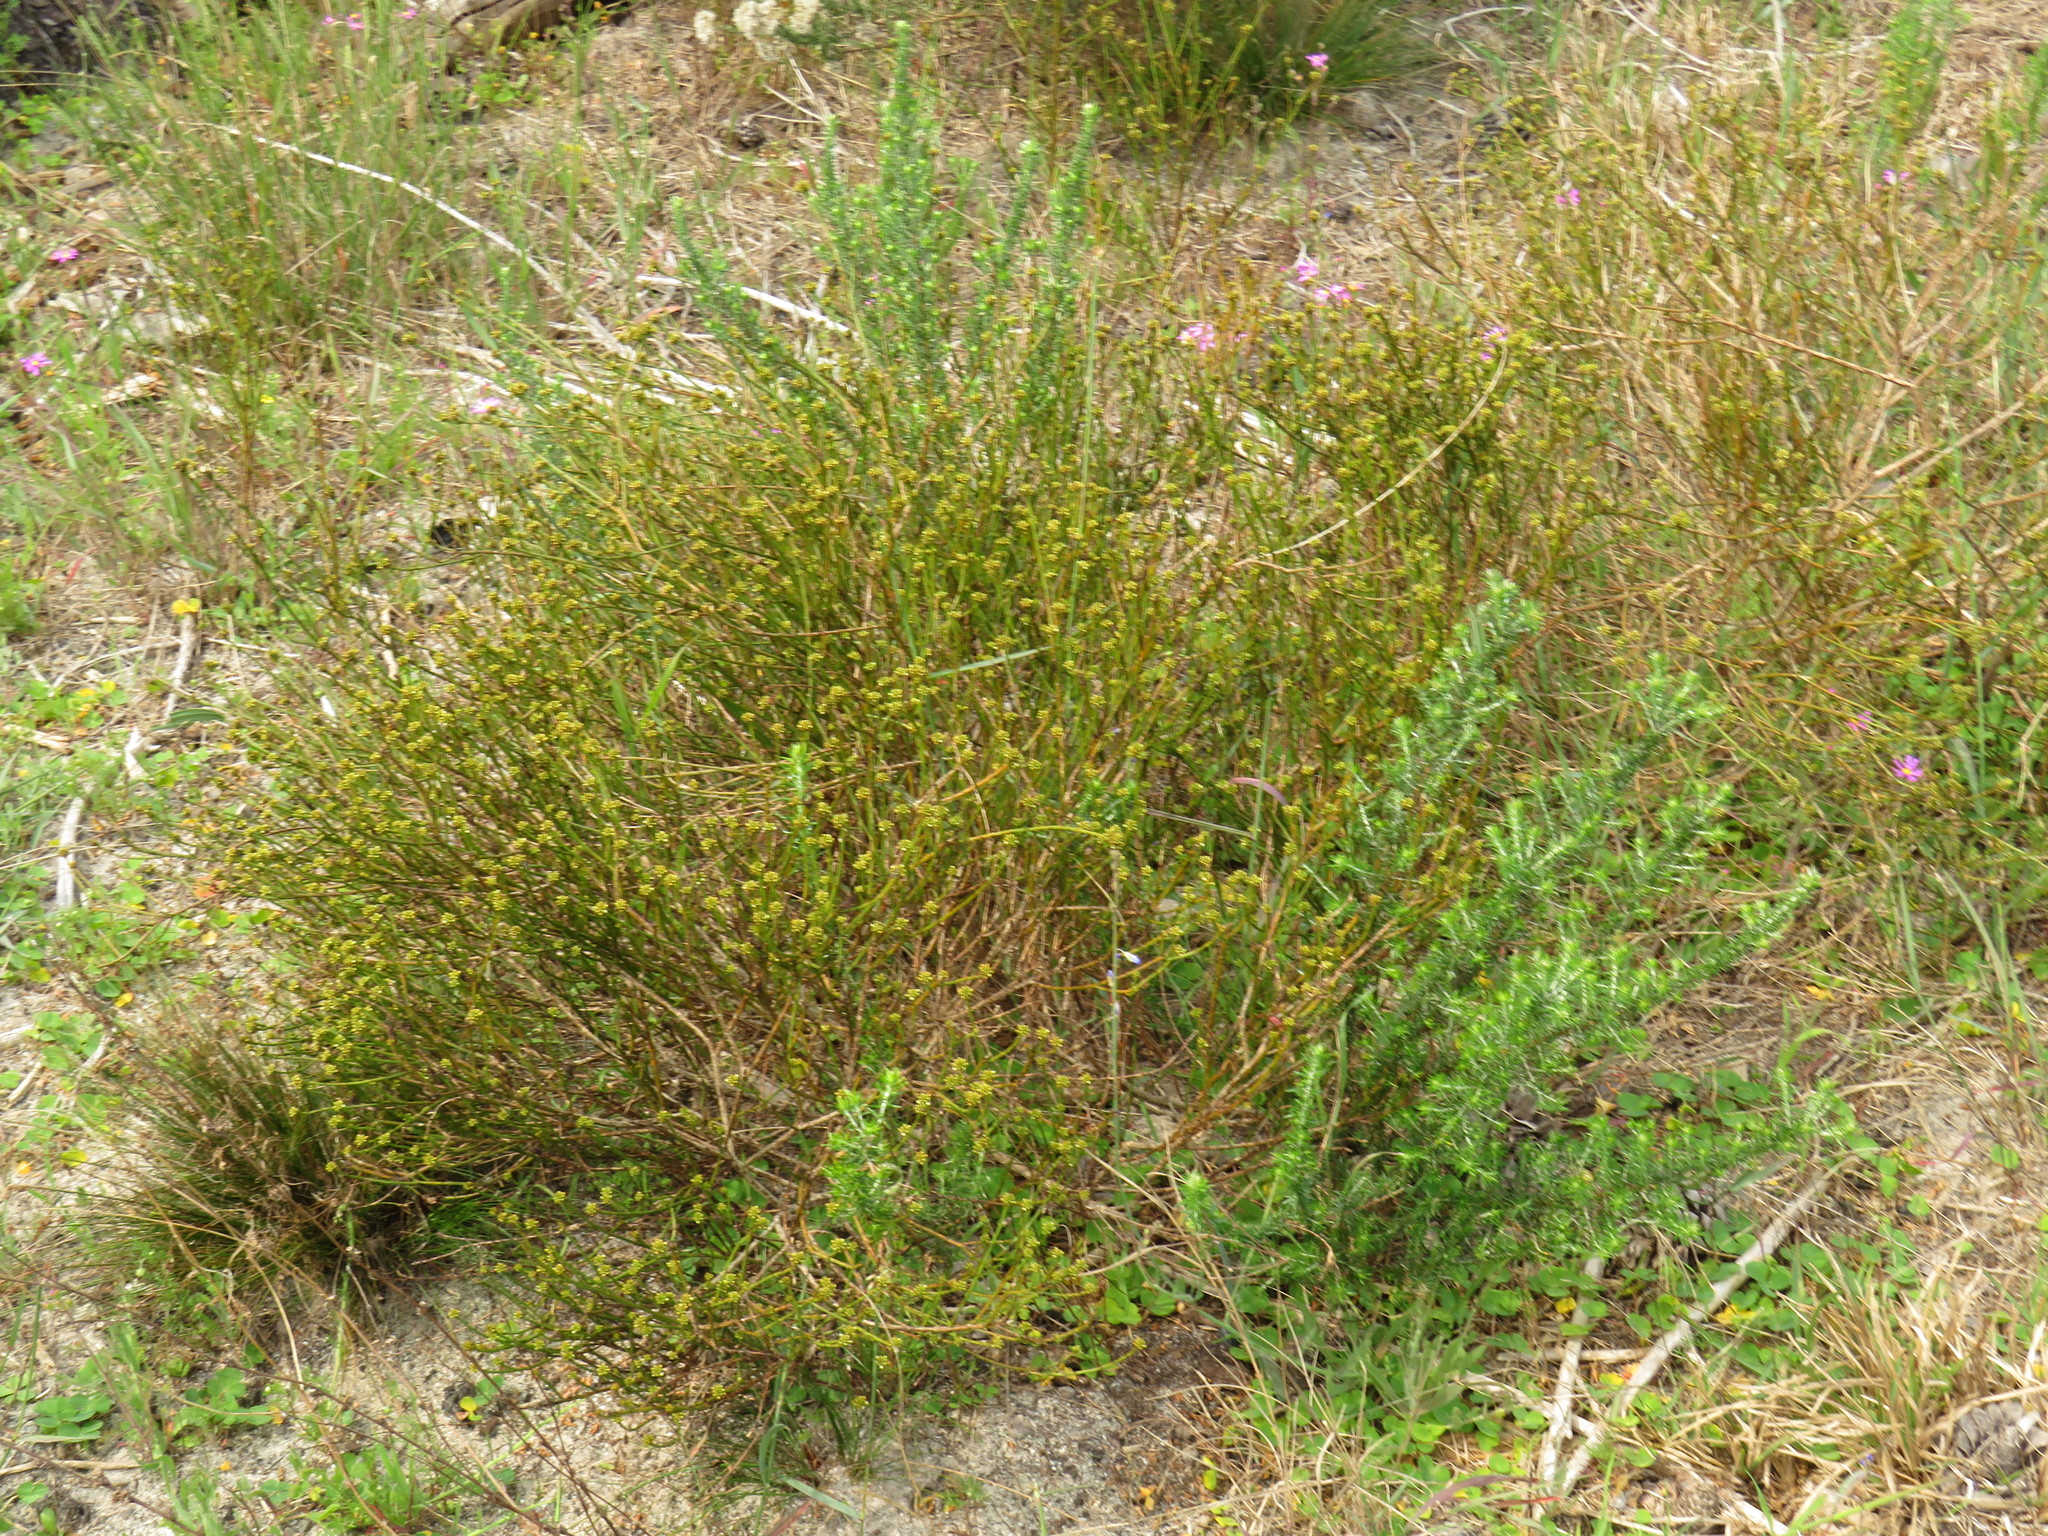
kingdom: Plantae
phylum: Tracheophyta
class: Magnoliopsida
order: Santalales
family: Thesiaceae
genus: Thesium
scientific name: Thesium aggregatum
